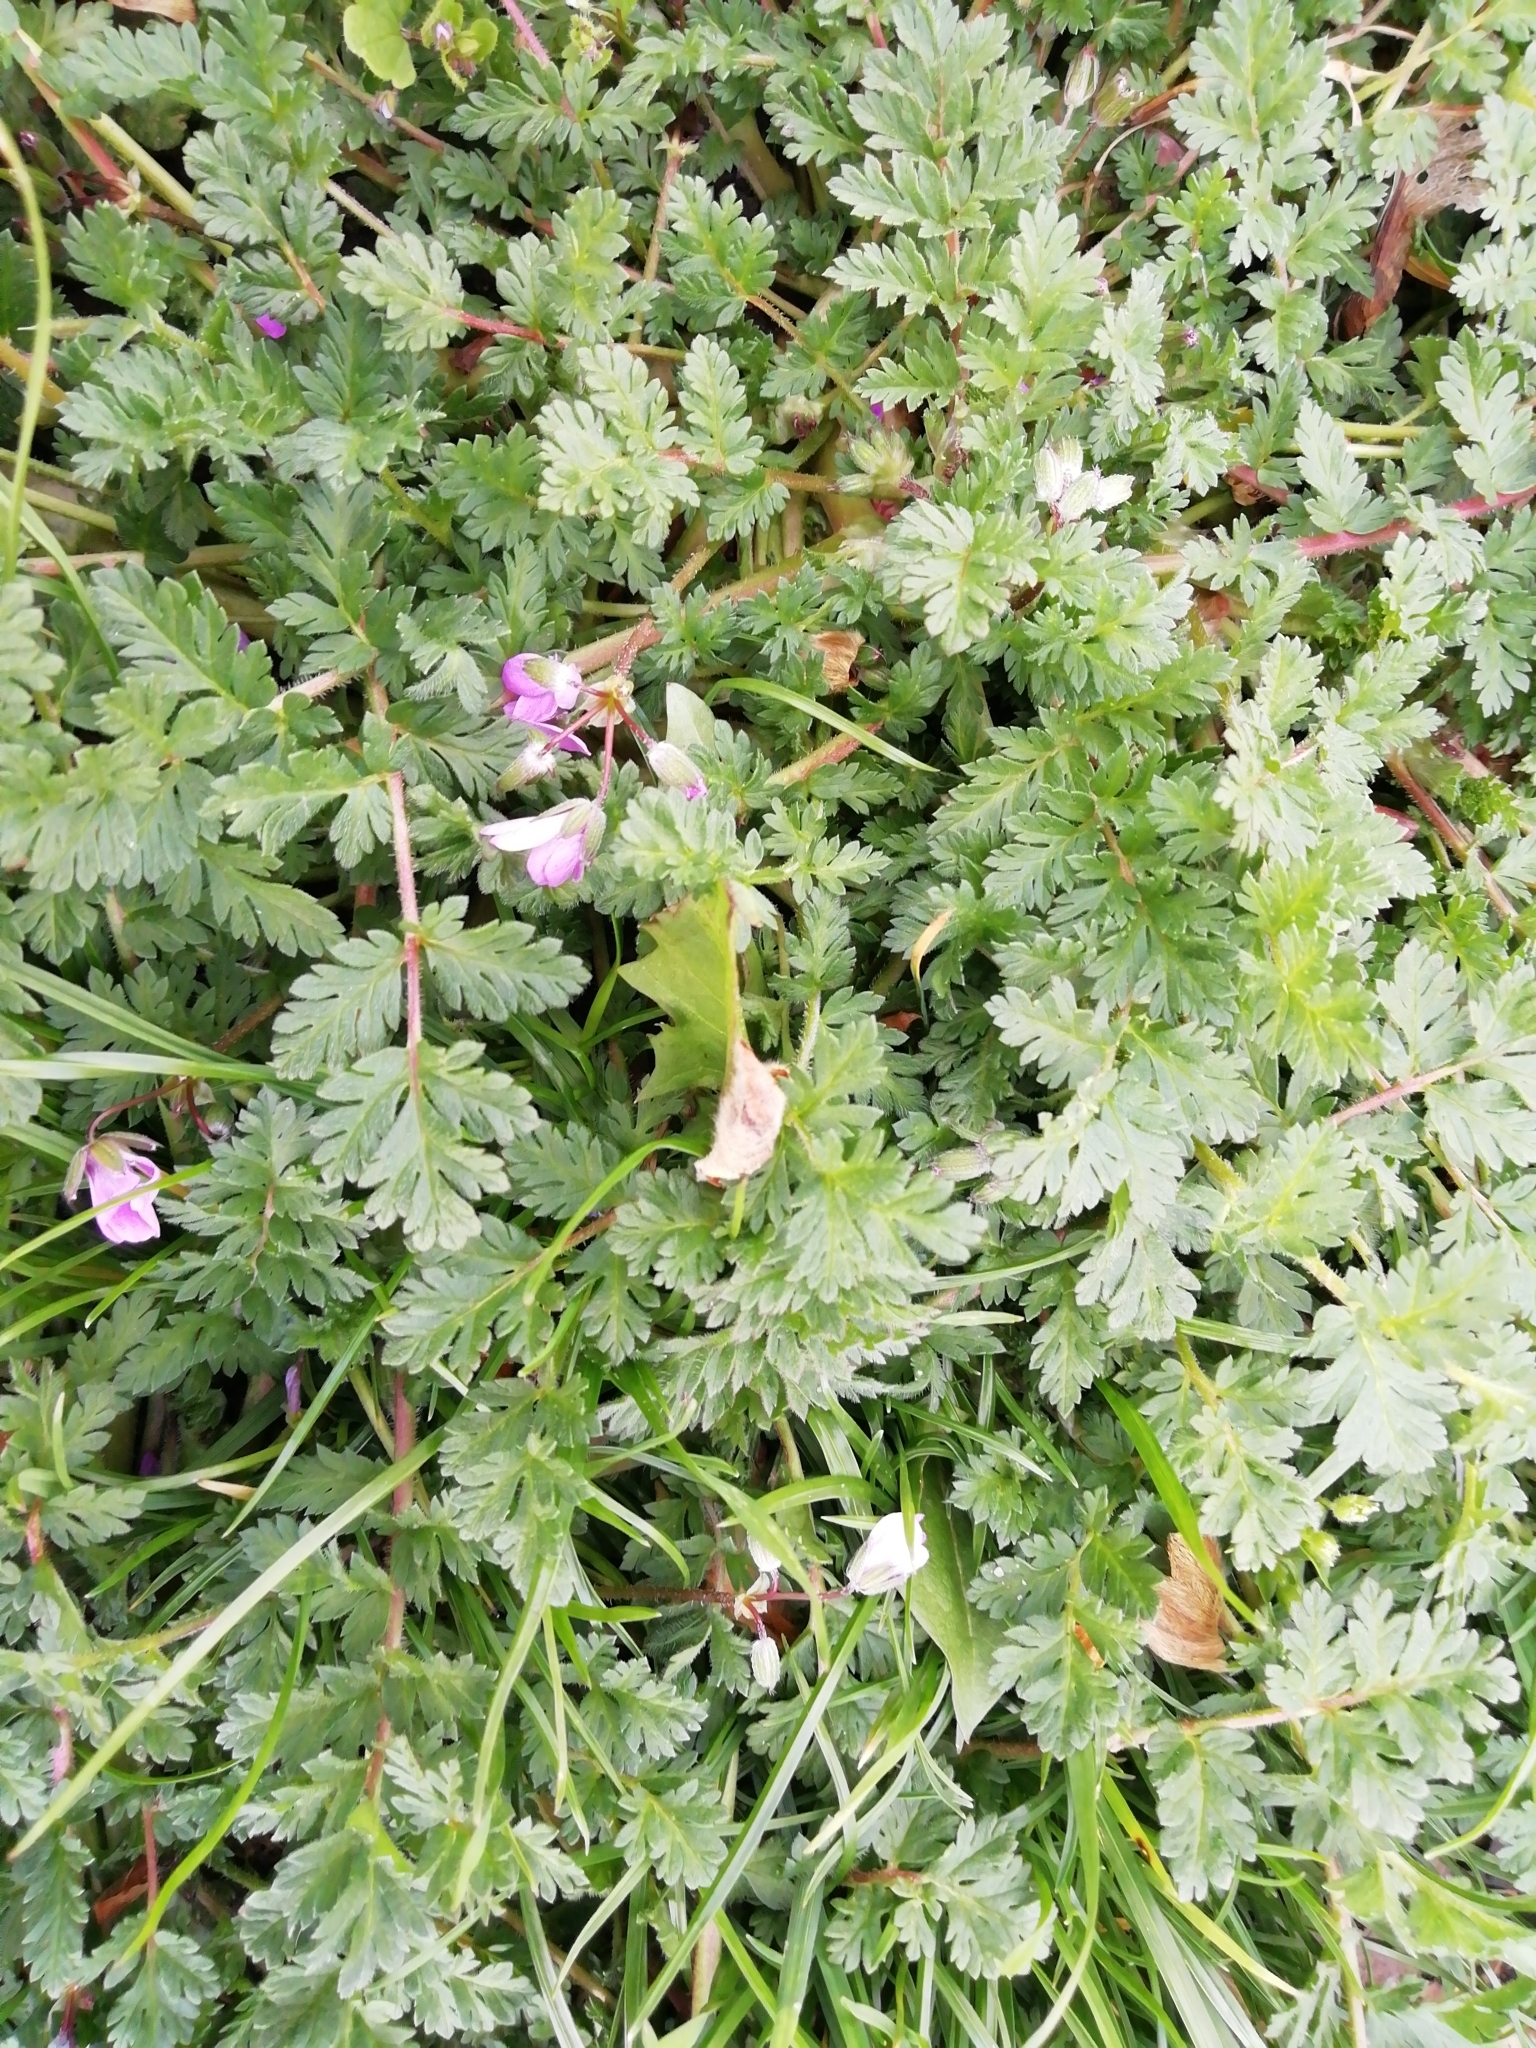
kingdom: Plantae
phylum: Tracheophyta
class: Magnoliopsida
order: Geraniales
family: Geraniaceae
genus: Erodium
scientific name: Erodium cicutarium
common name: Common stork's-bill
